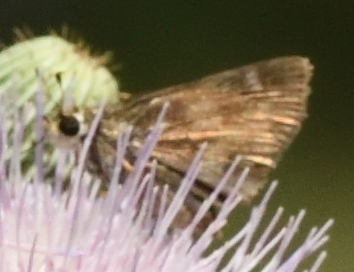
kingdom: Animalia
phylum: Arthropoda
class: Insecta
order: Lepidoptera
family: Hesperiidae
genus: Polites
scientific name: Polites vibex
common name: Whirlabout
